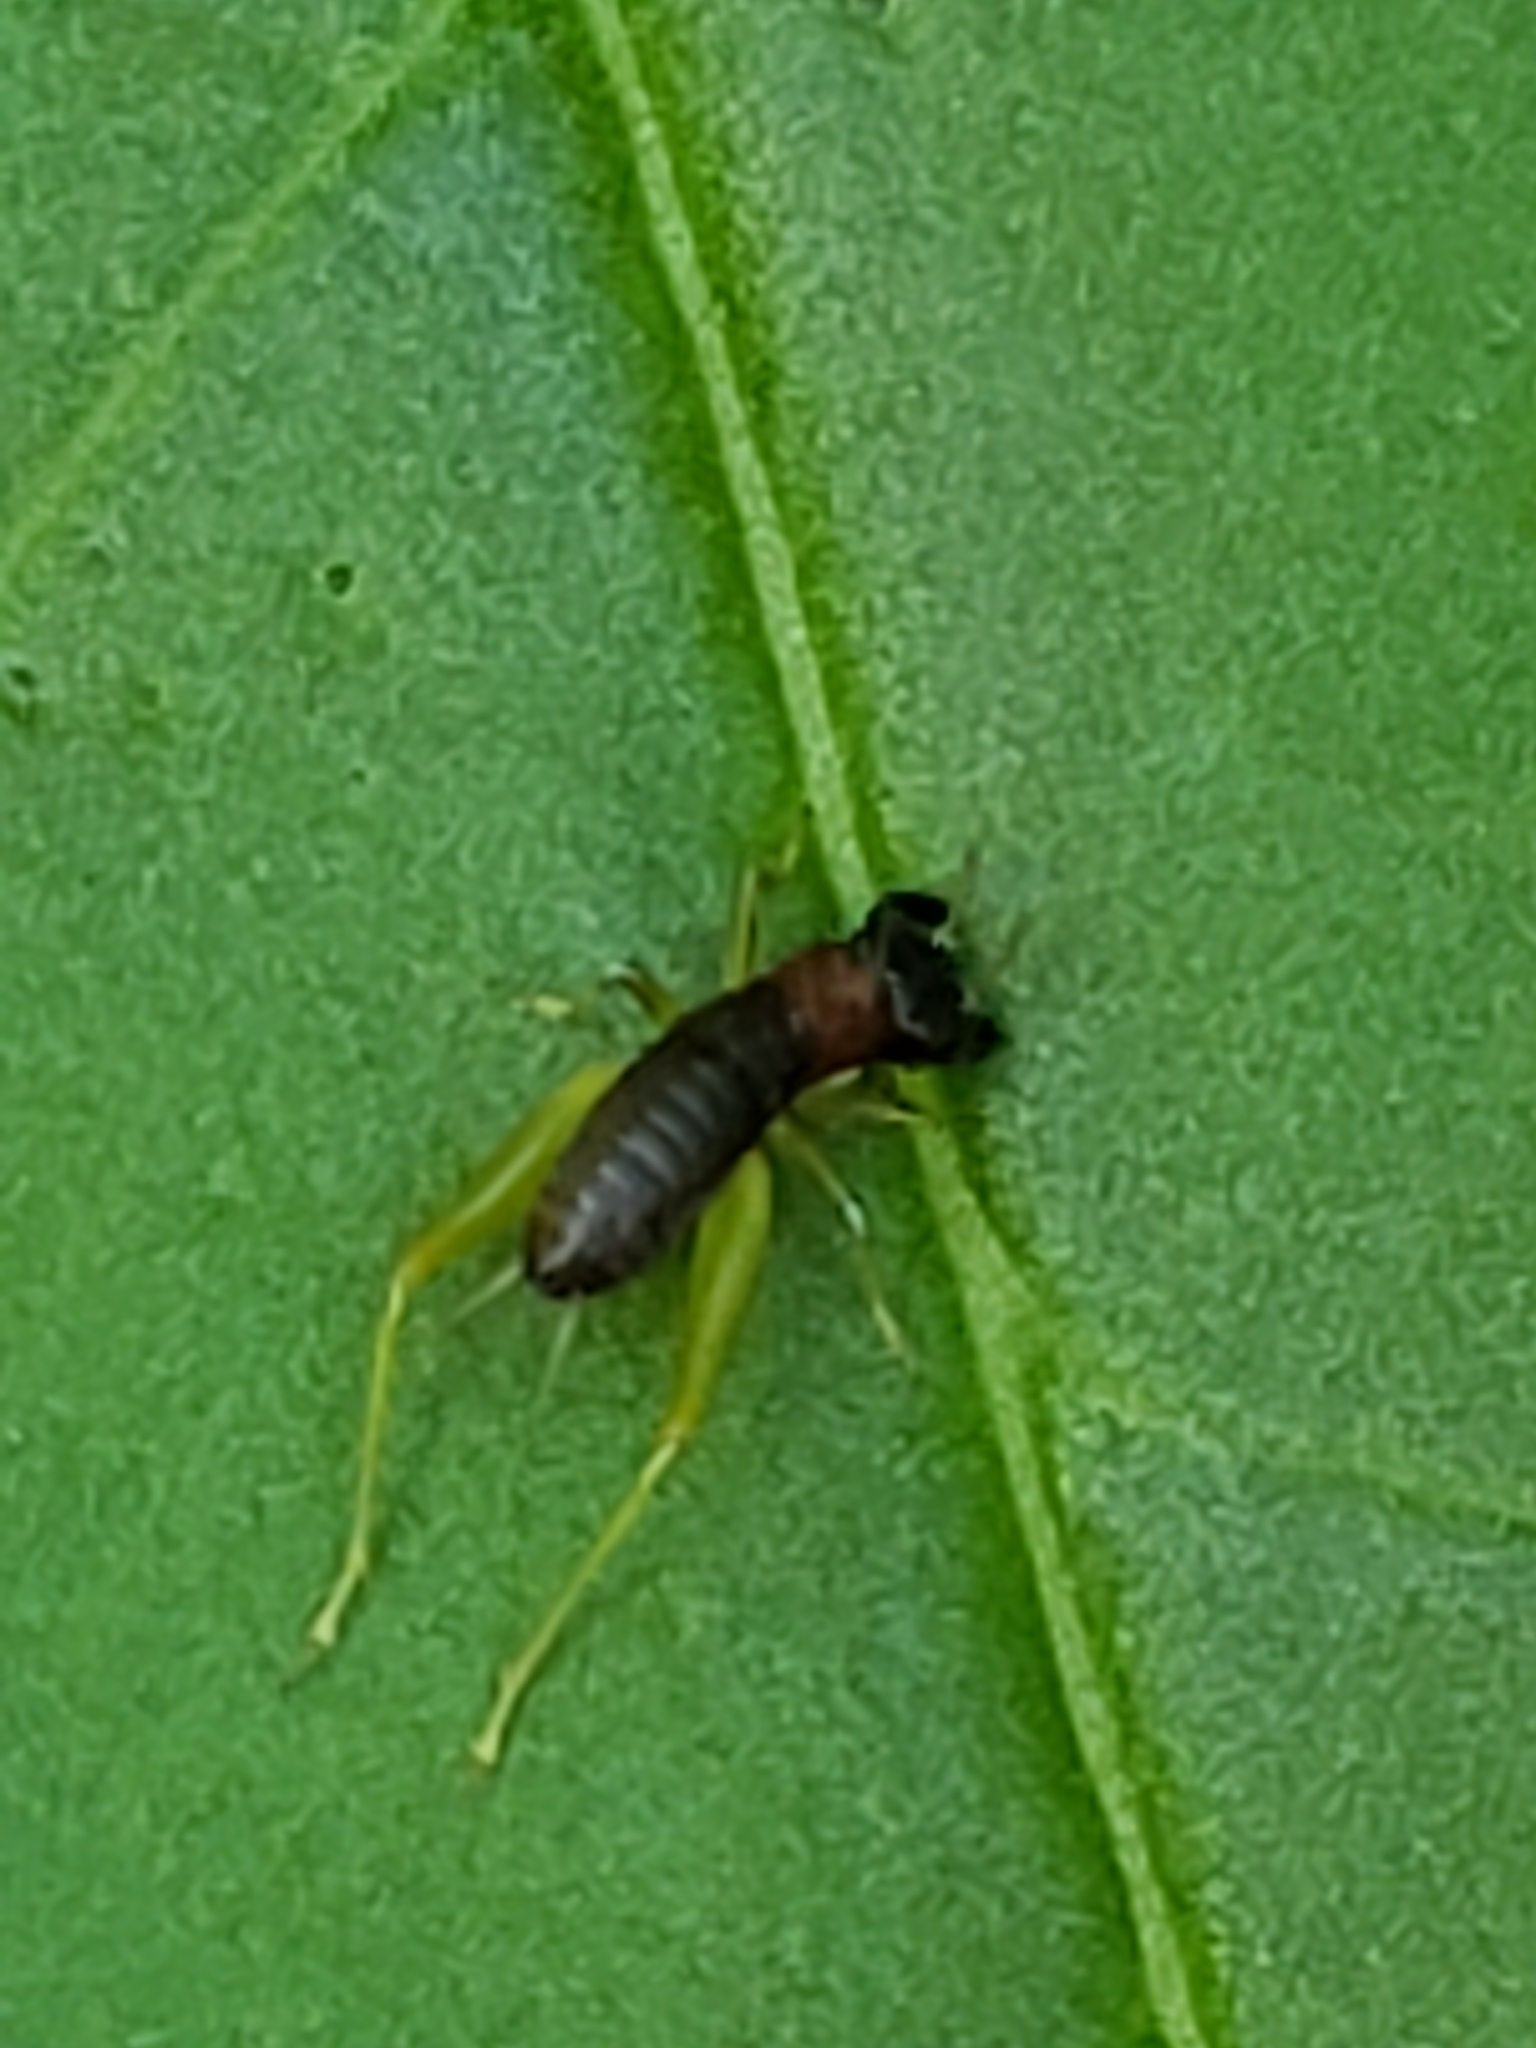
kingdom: Animalia
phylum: Arthropoda
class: Insecta
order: Orthoptera
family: Trigonidiidae
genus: Phyllopalpus
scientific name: Phyllopalpus pulchellus
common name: Handsome trig
